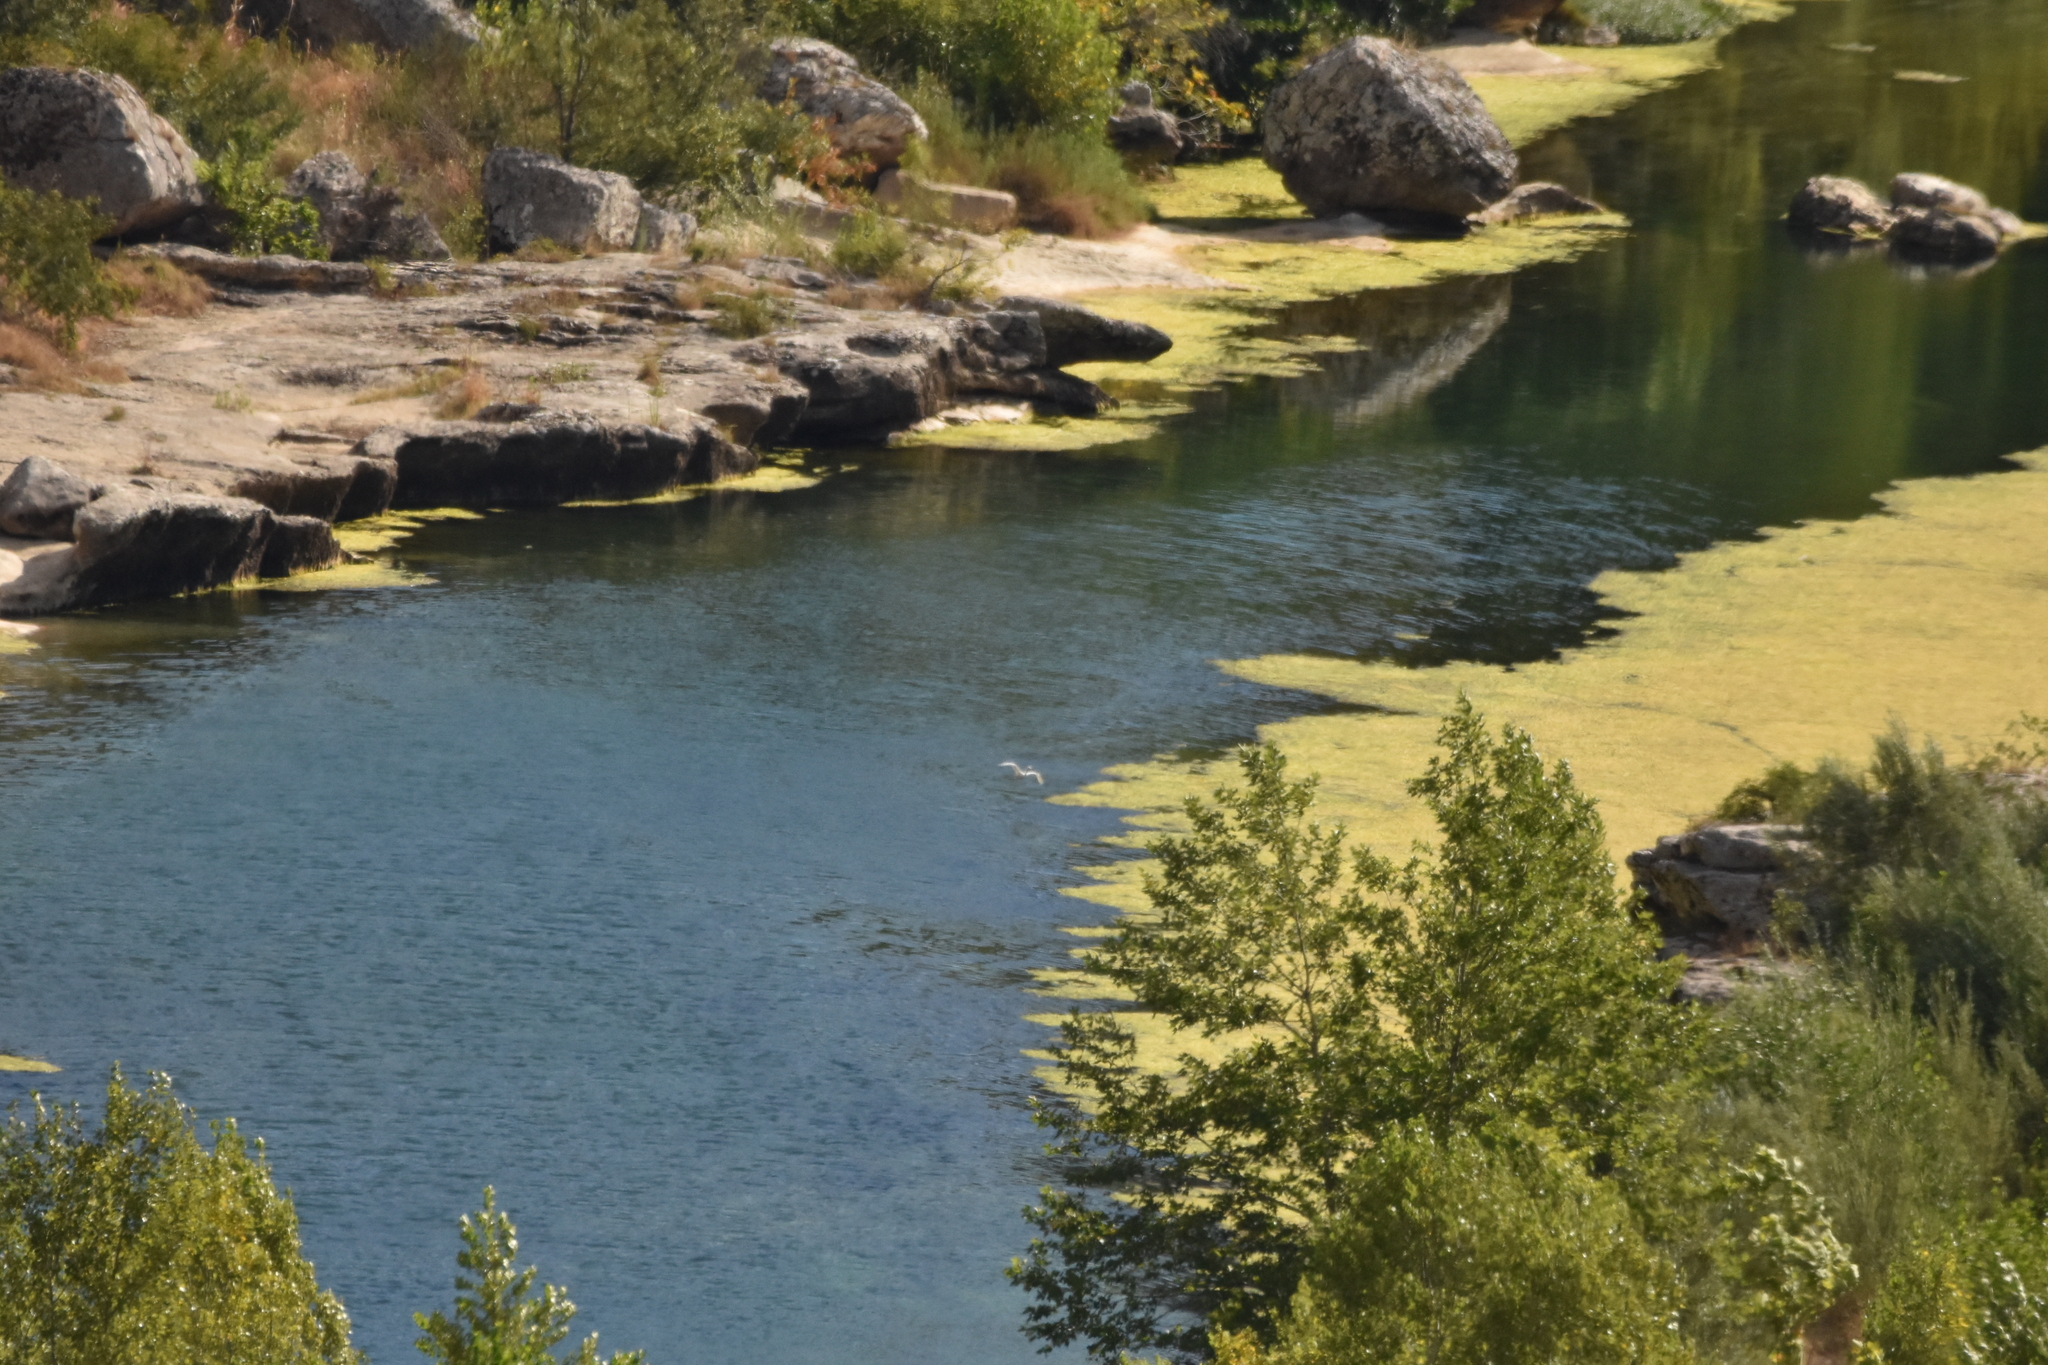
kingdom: Animalia
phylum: Chordata
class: Aves
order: Pelecaniformes
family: Ardeidae
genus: Egretta
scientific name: Egretta garzetta
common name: Little egret
